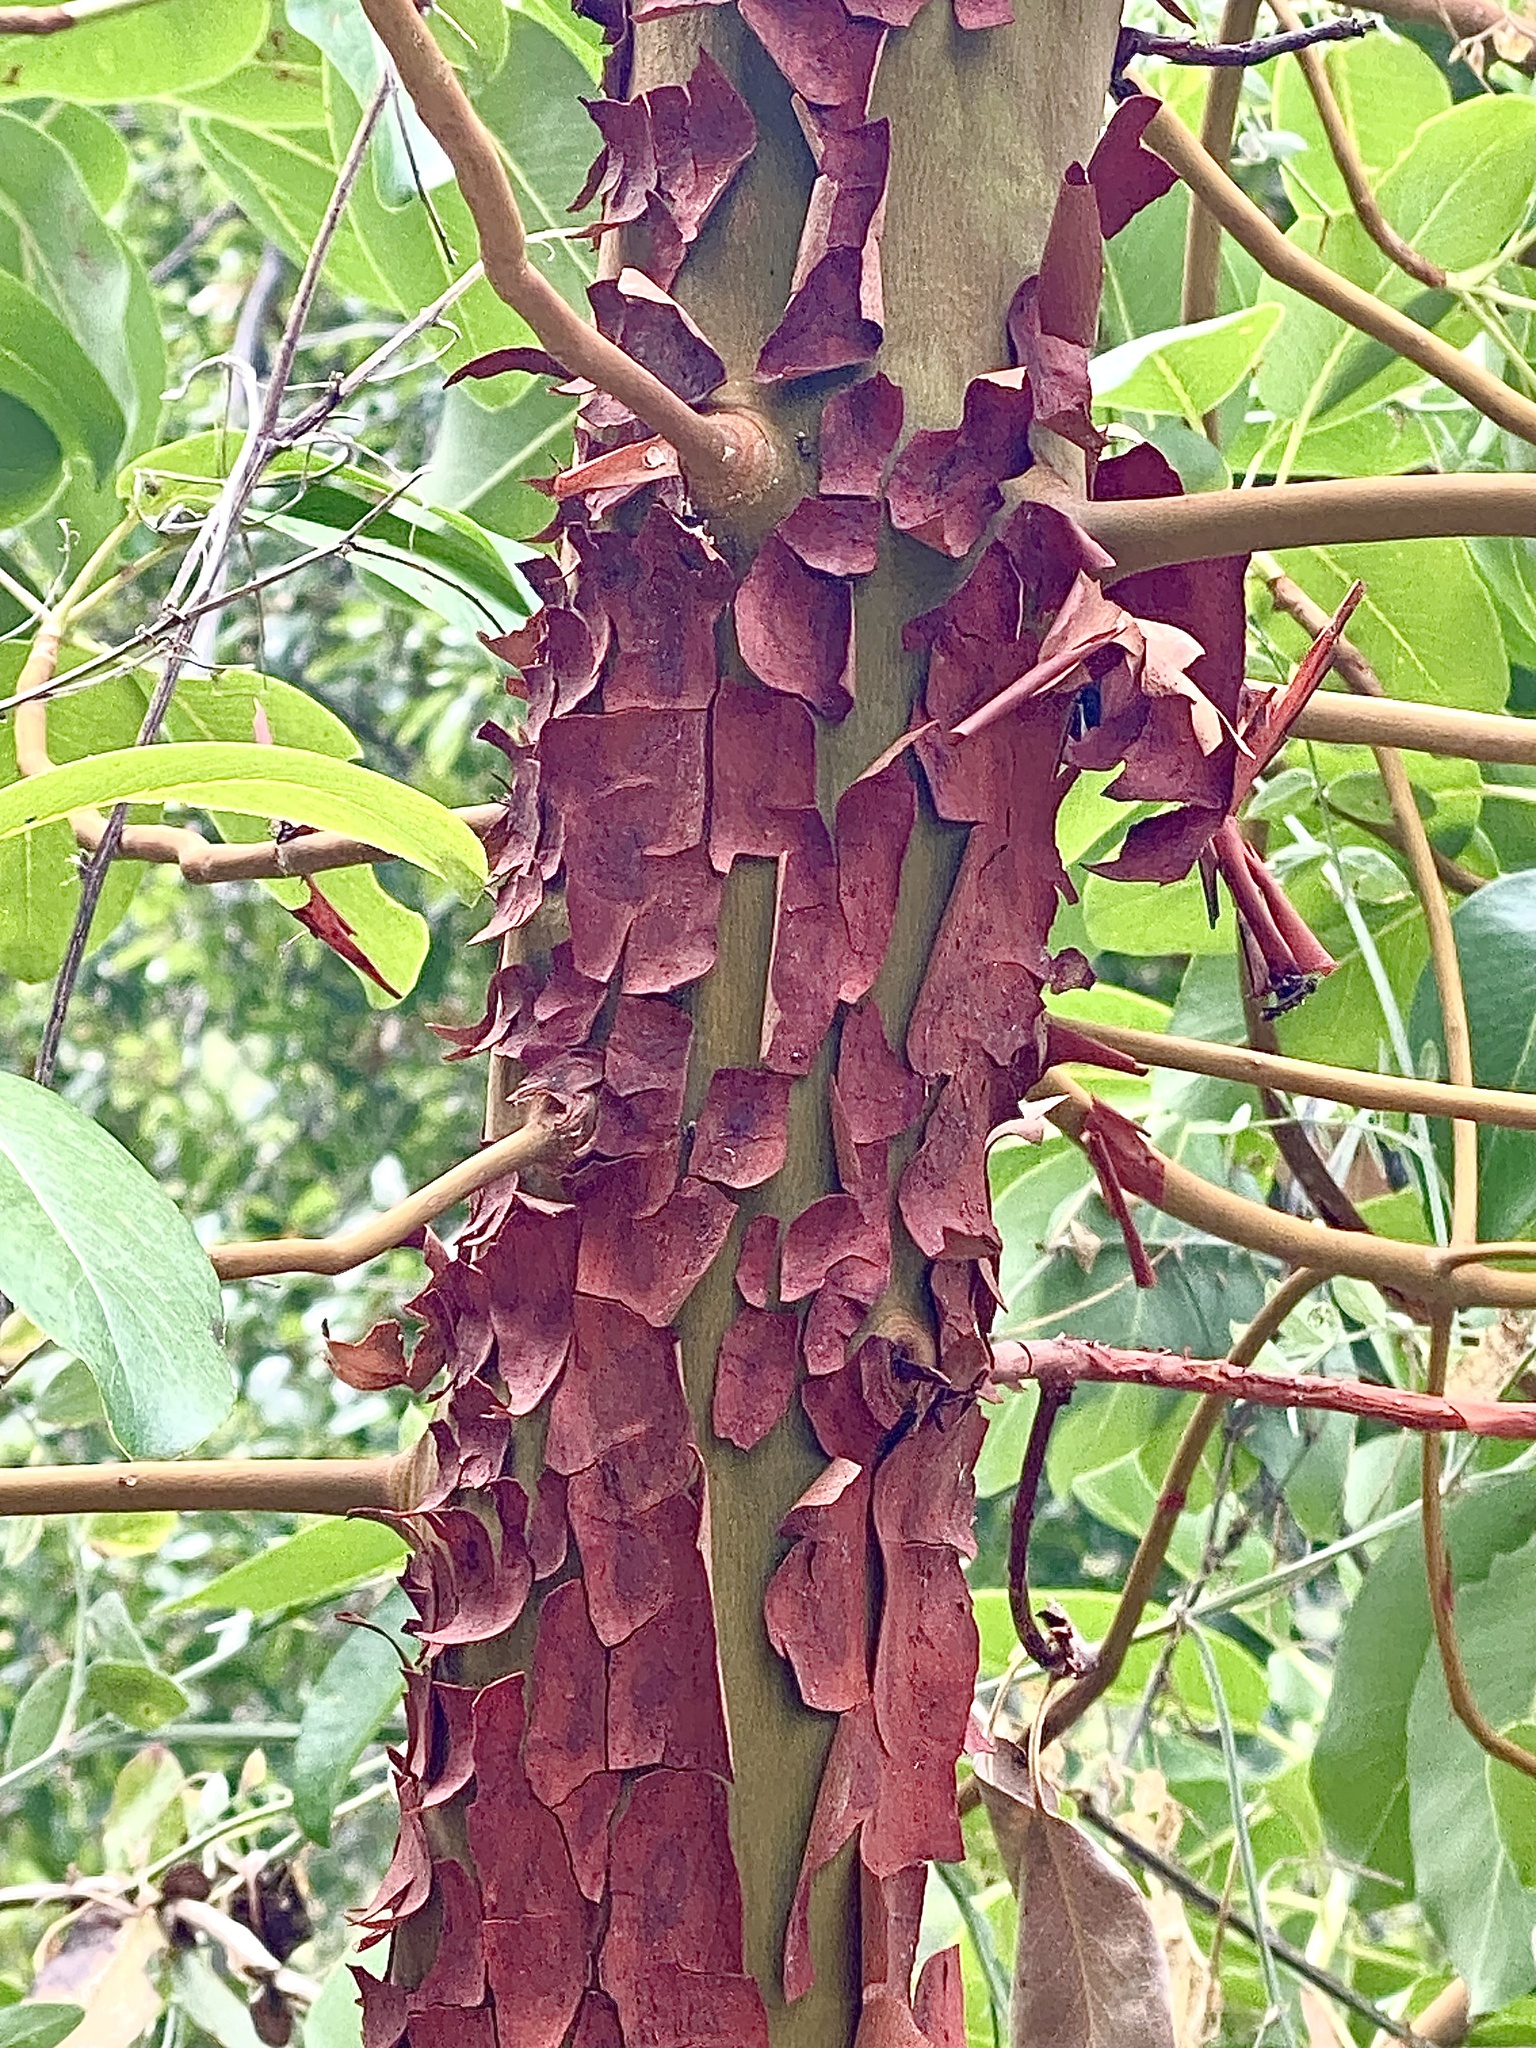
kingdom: Plantae
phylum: Tracheophyta
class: Magnoliopsida
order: Ericales
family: Ericaceae
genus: Arbutus
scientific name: Arbutus menziesii
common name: Pacific madrone
